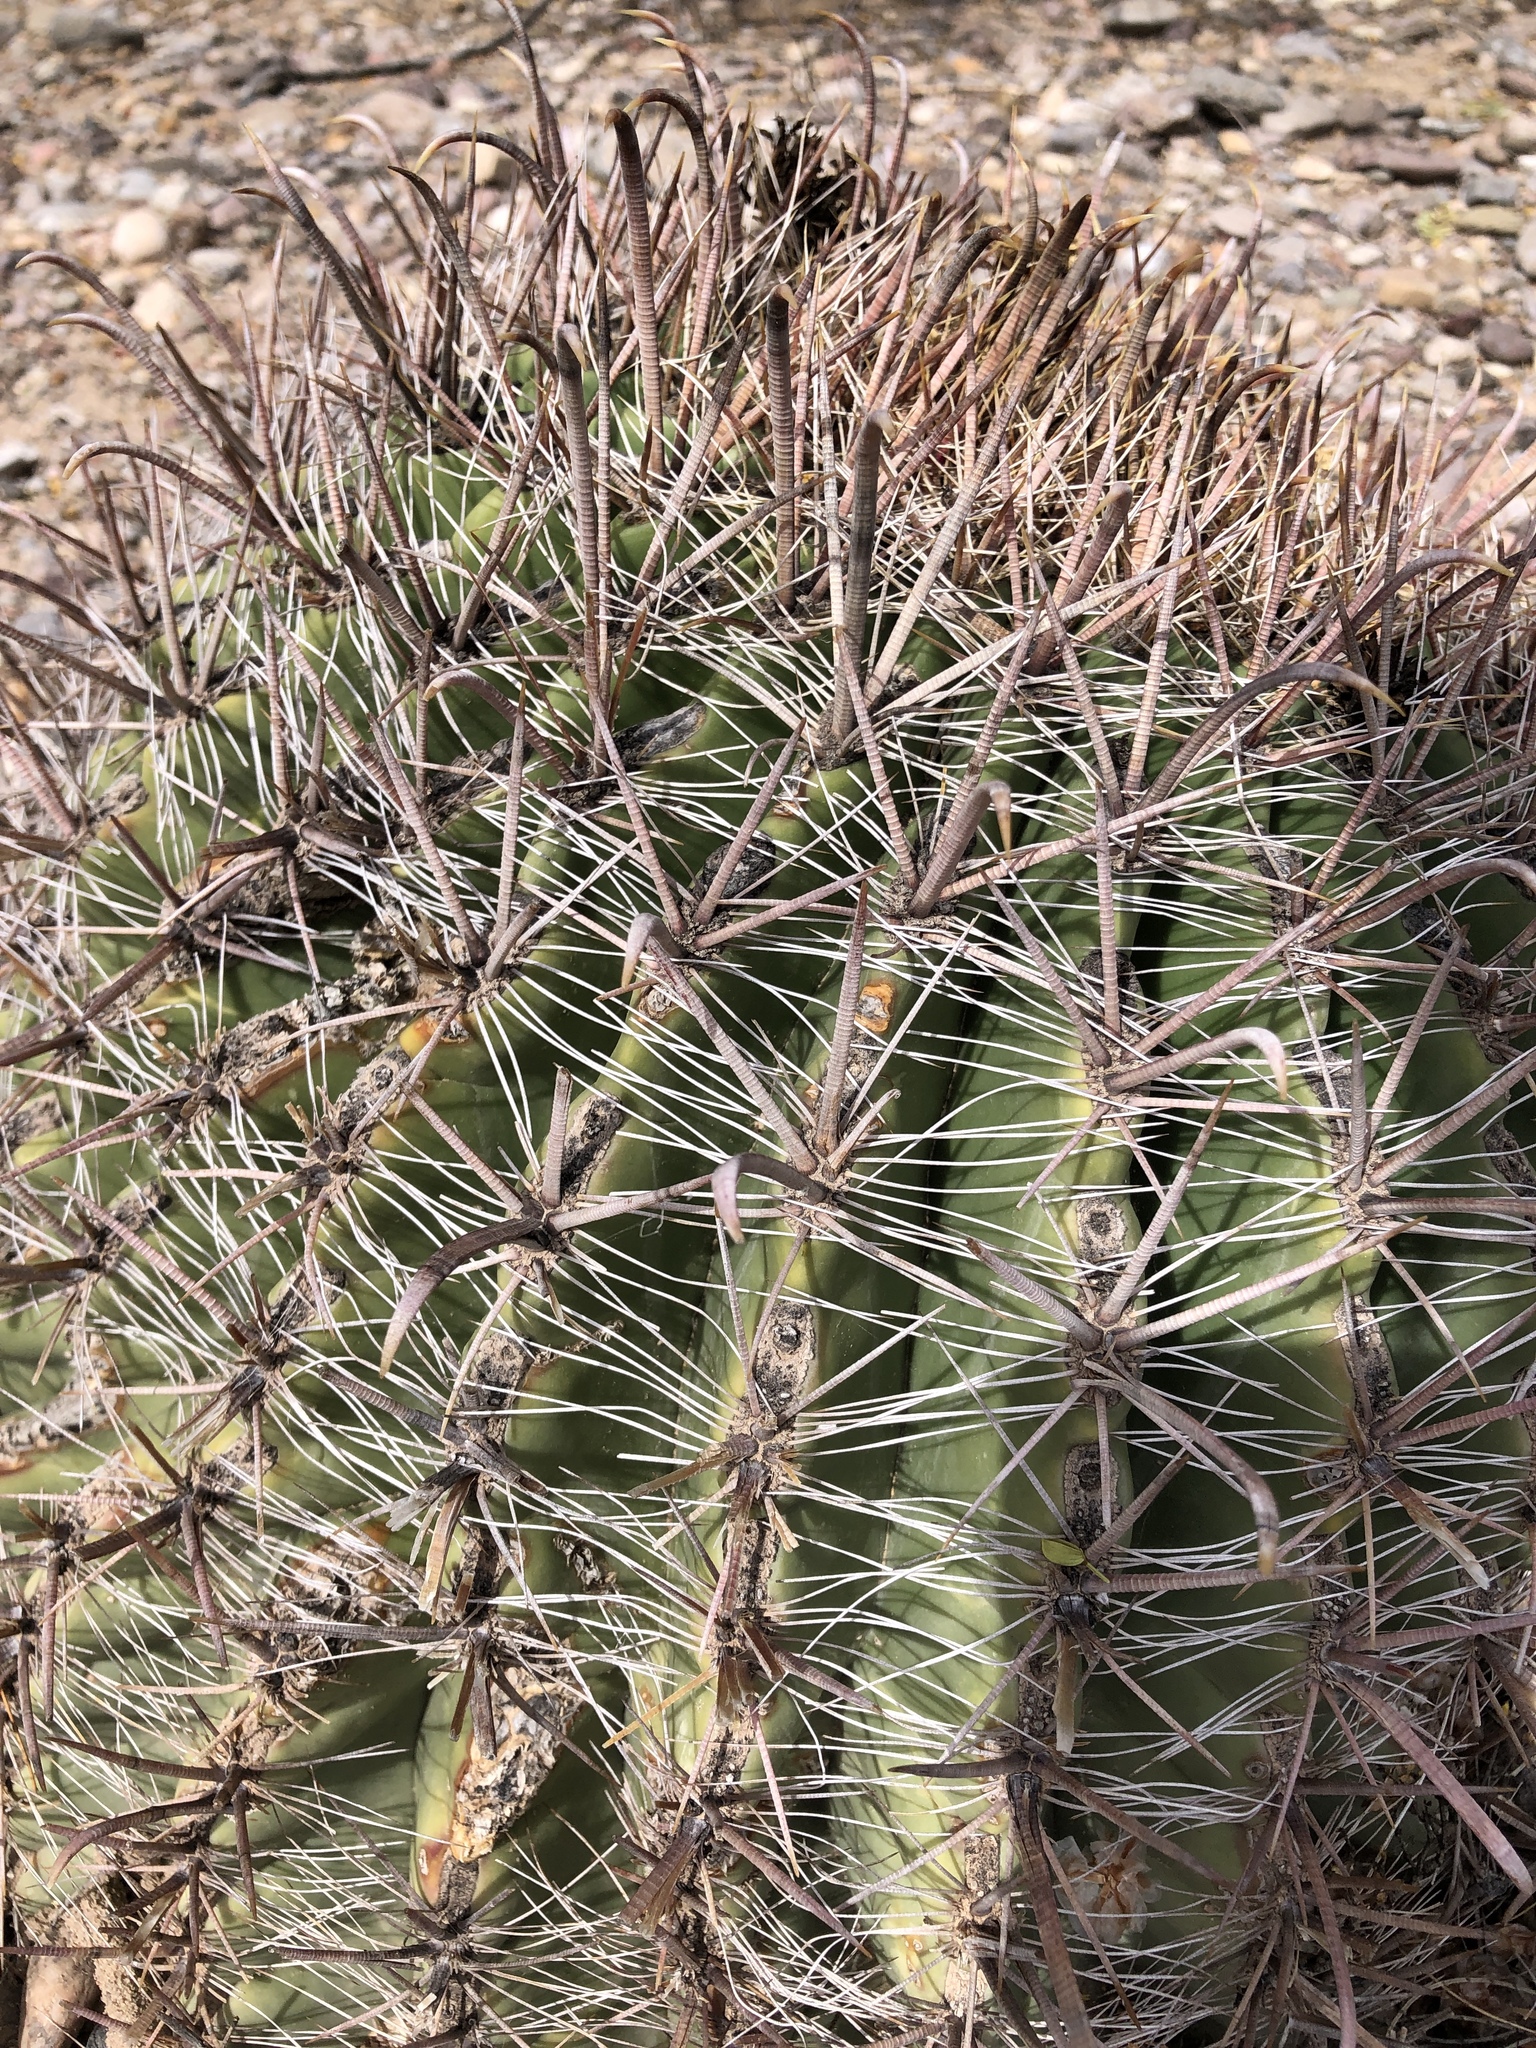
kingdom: Plantae
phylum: Tracheophyta
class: Magnoliopsida
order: Caryophyllales
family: Cactaceae
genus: Ferocactus
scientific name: Ferocactus wislizeni
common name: Candy barrel cactus
